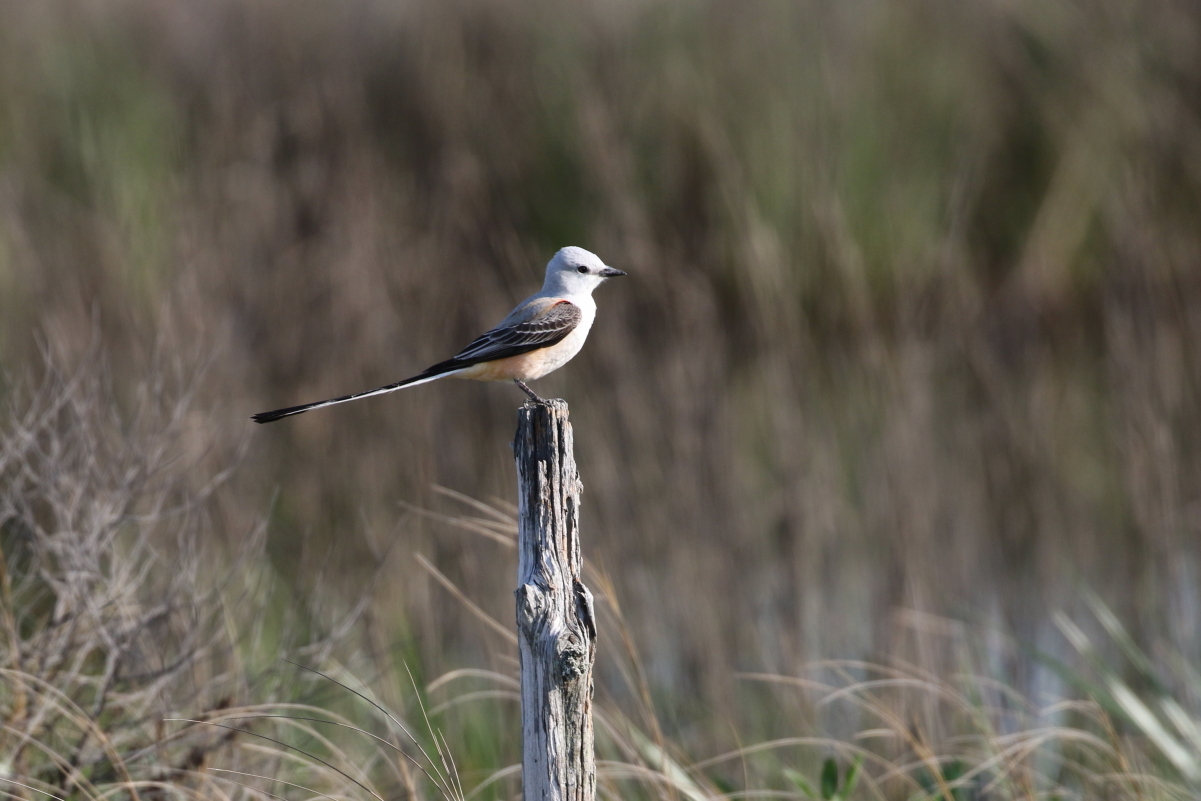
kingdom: Animalia
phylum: Chordata
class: Aves
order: Passeriformes
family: Tyrannidae
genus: Tyrannus
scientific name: Tyrannus forficatus
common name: Scissor-tailed flycatcher
